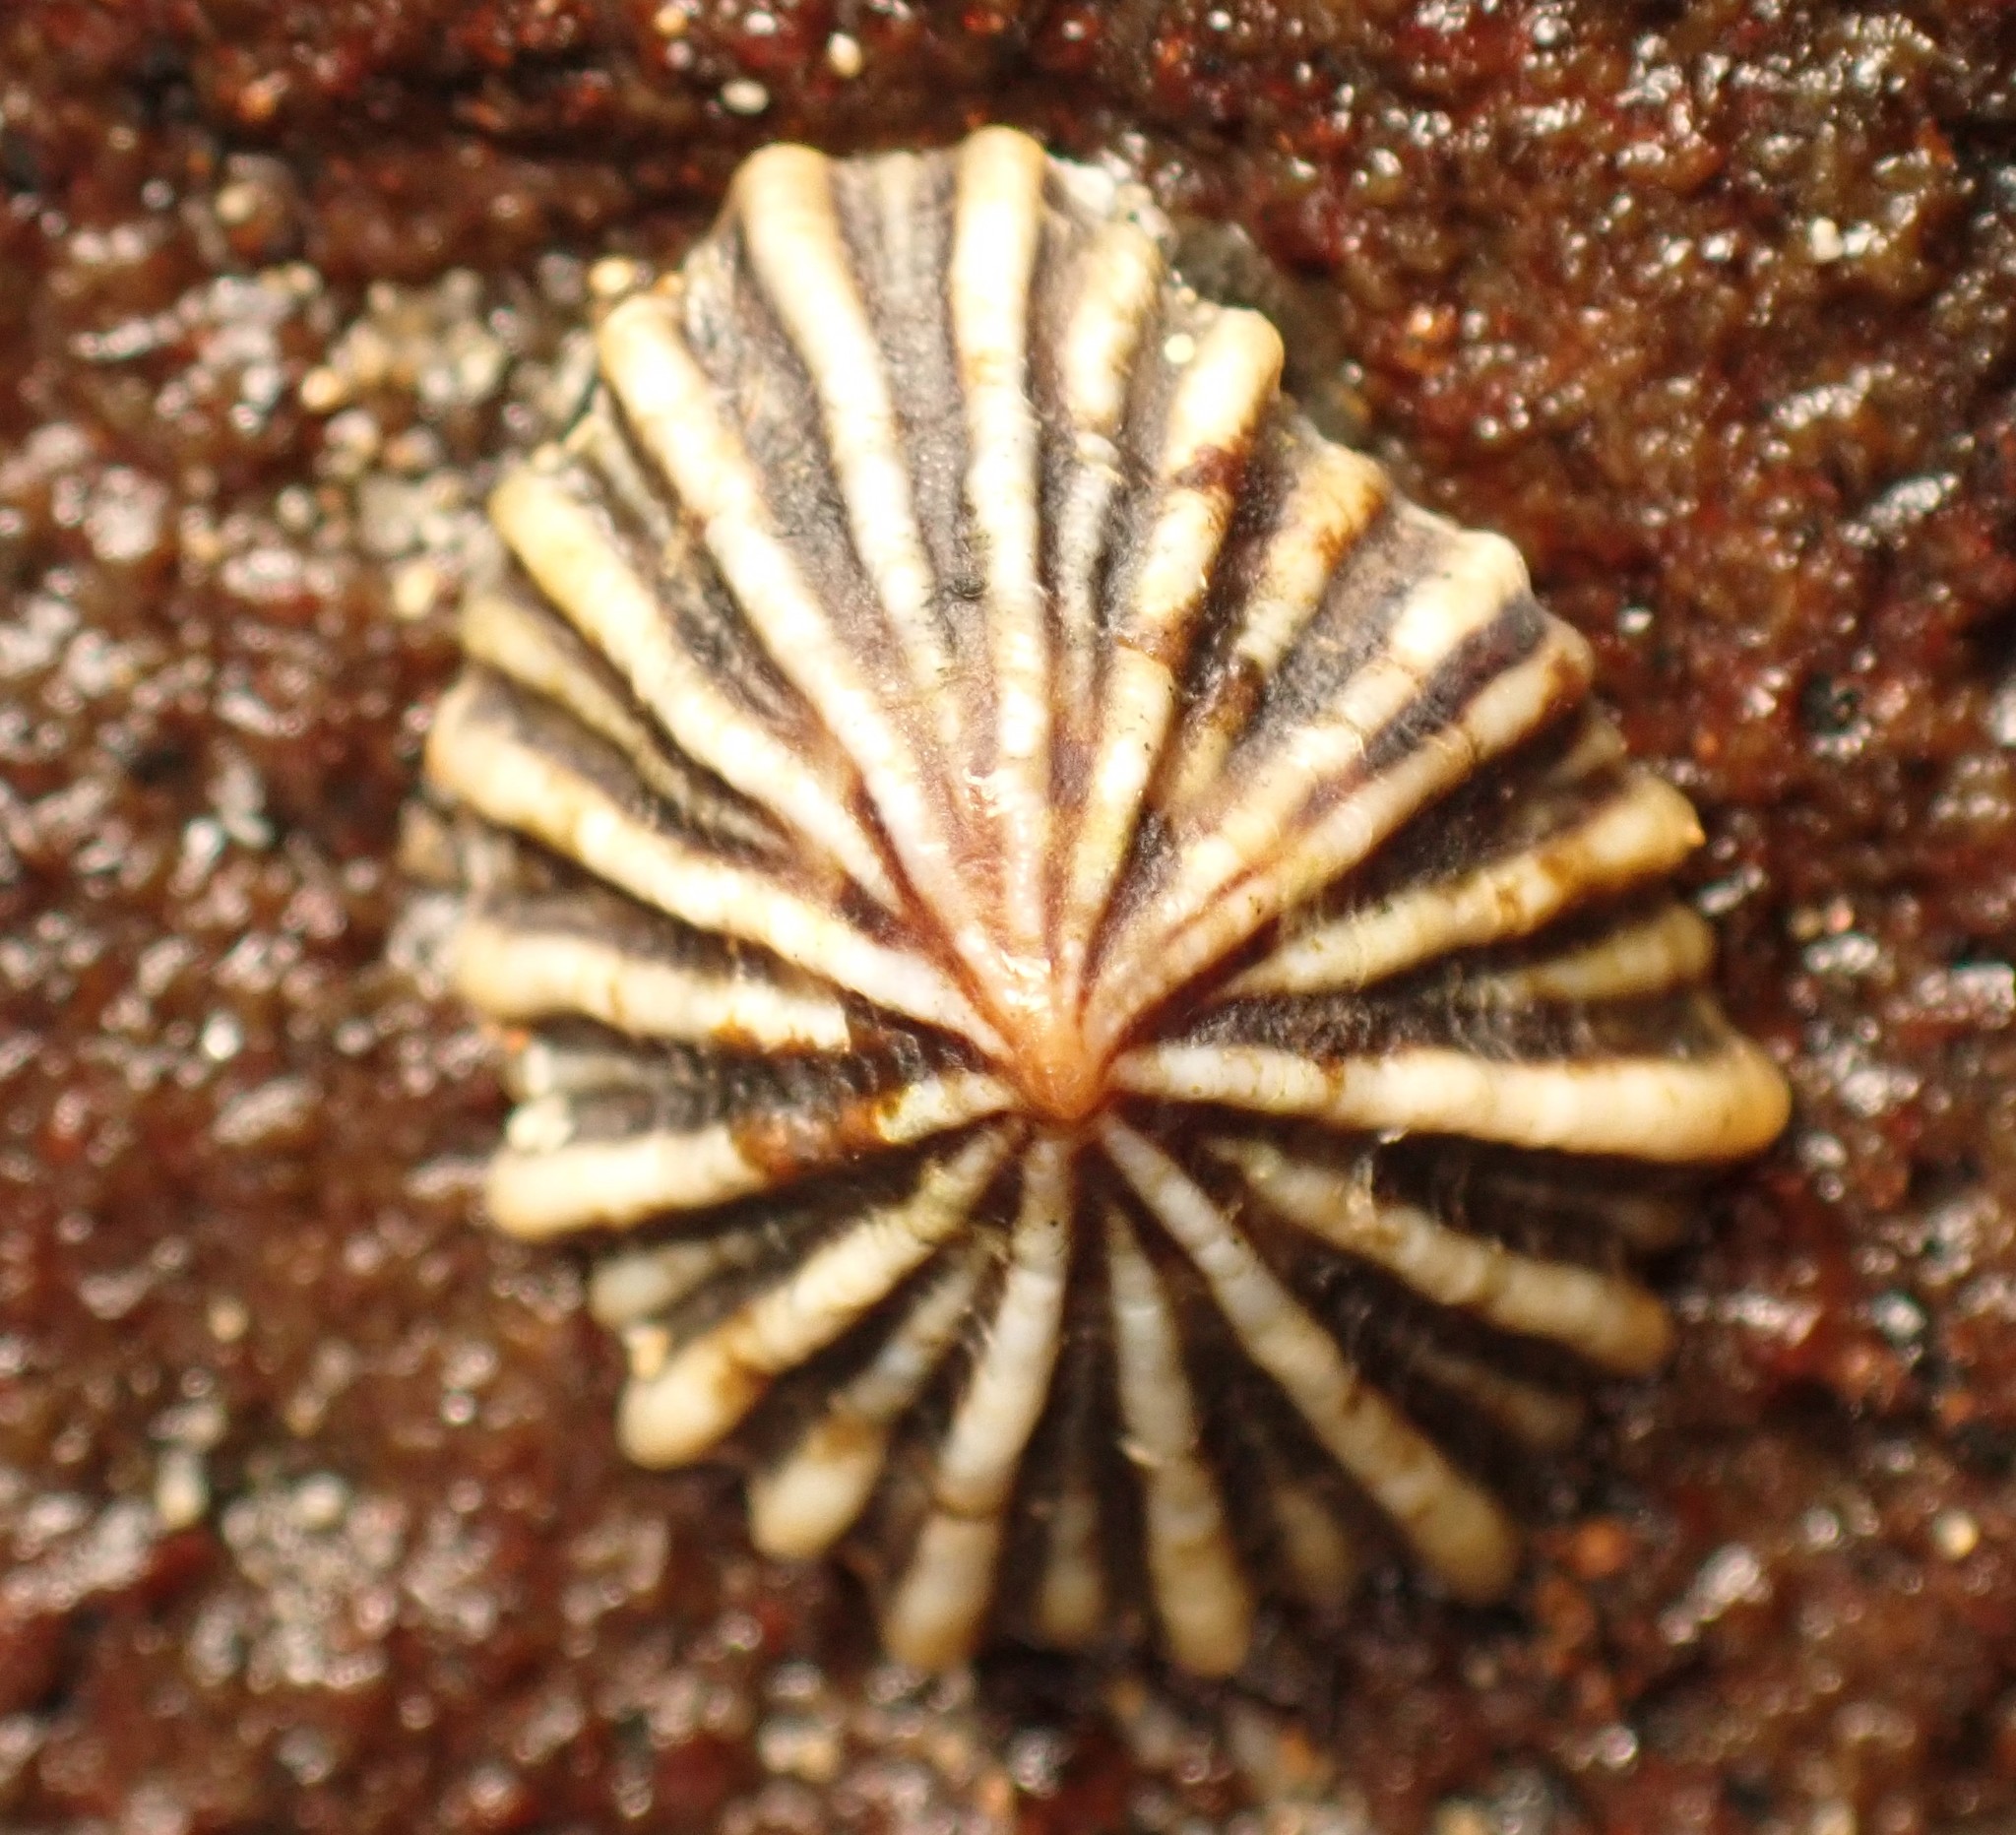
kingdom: Animalia
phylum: Mollusca
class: Gastropoda
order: Siphonariida
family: Siphonariidae
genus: Siphonaria
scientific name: Siphonaria diemenensis
